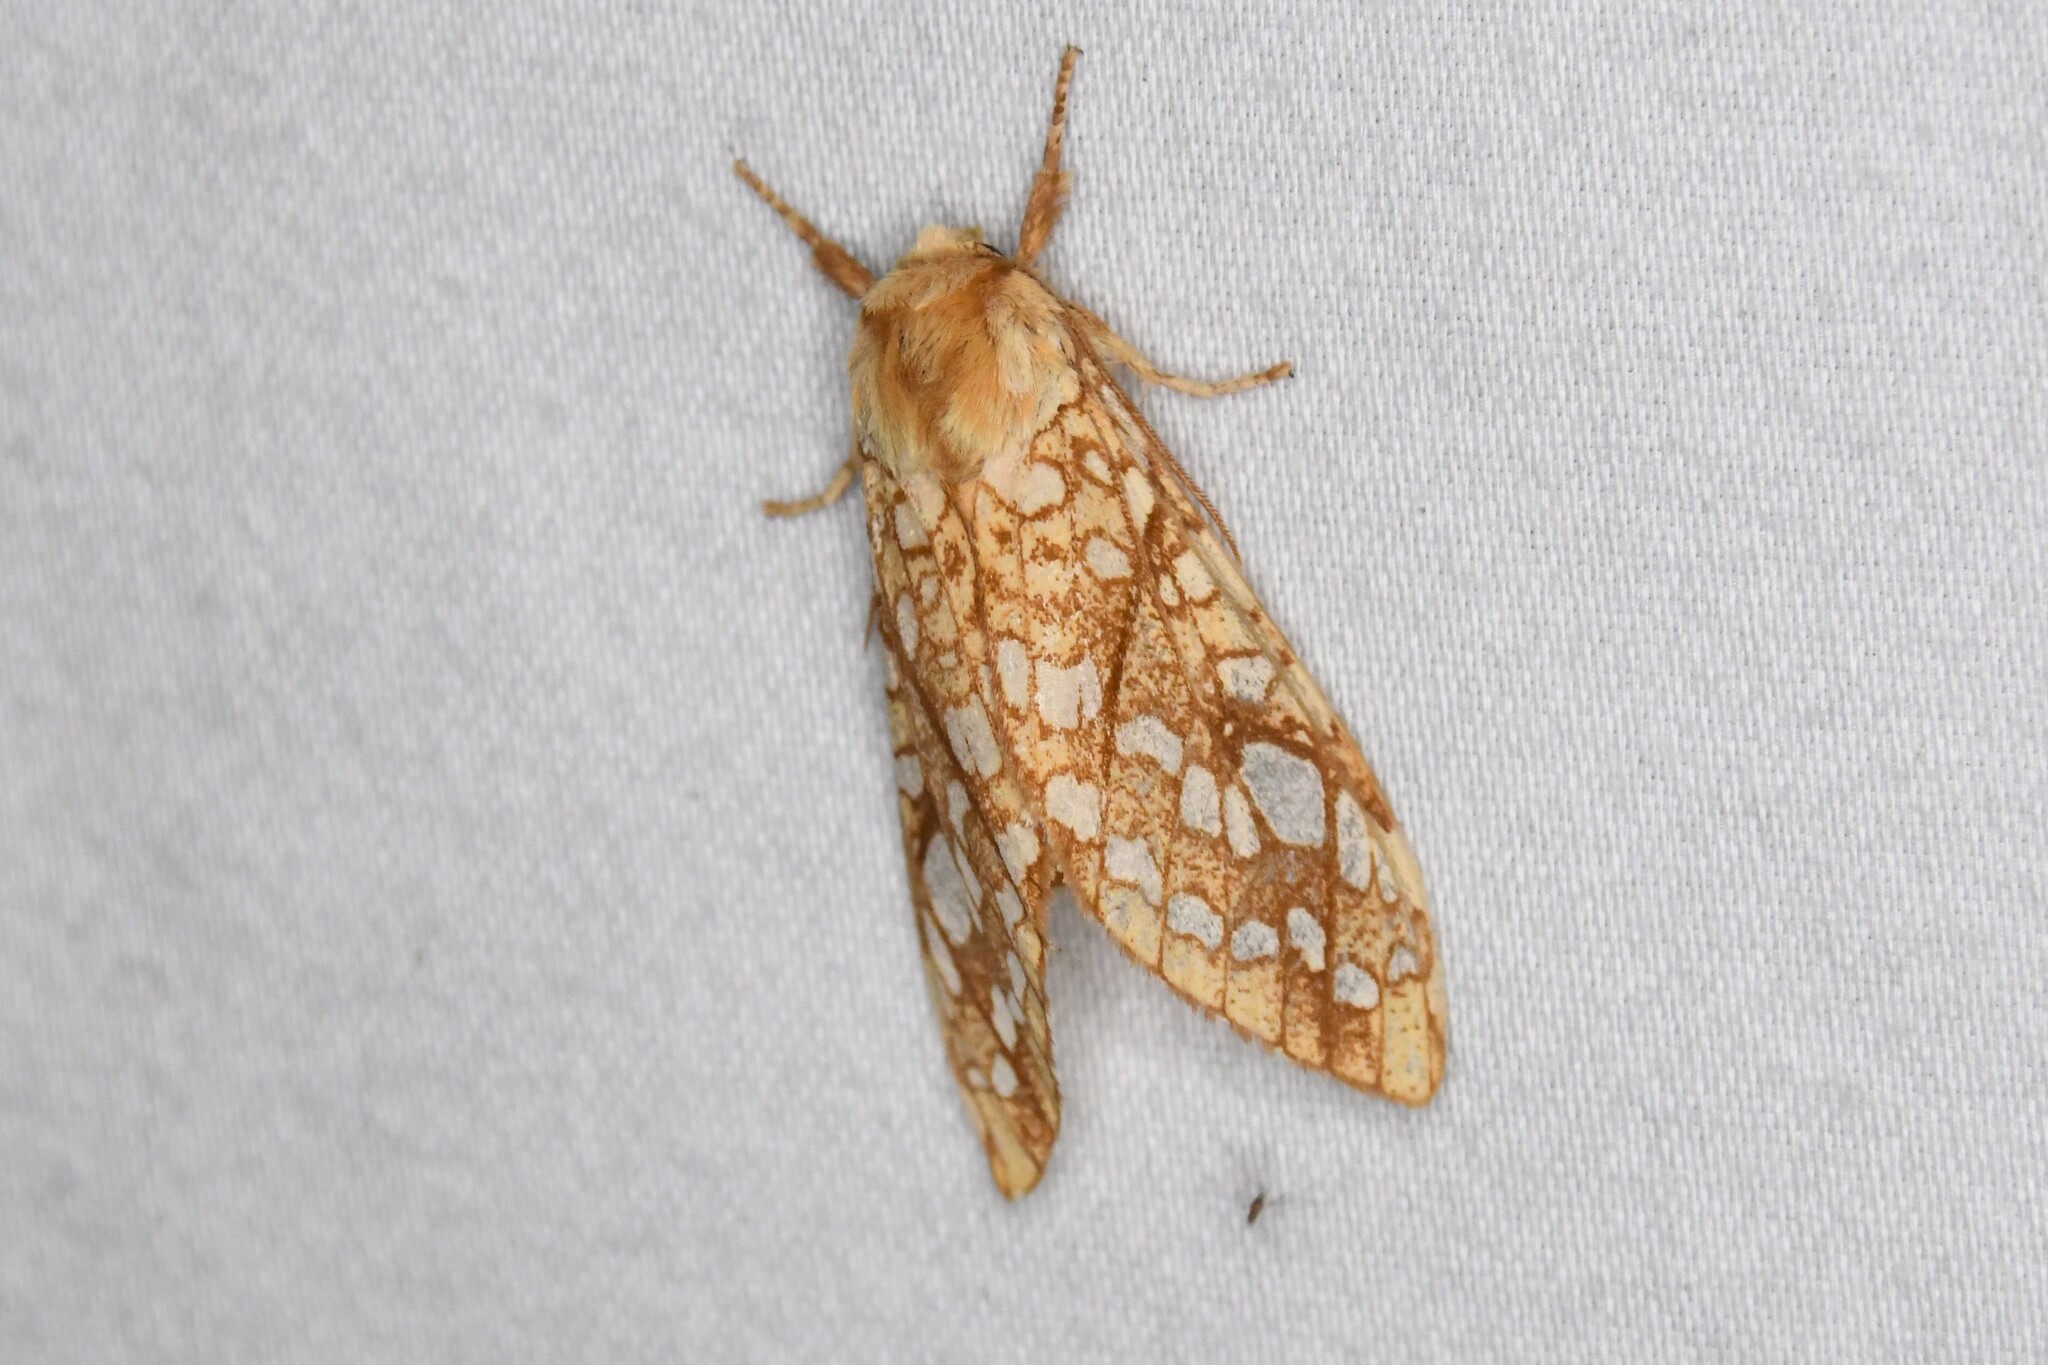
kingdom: Animalia
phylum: Arthropoda
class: Insecta
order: Lepidoptera
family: Erebidae
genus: Lophocampa
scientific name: Lophocampa caryae
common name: Hickory tussock moth
